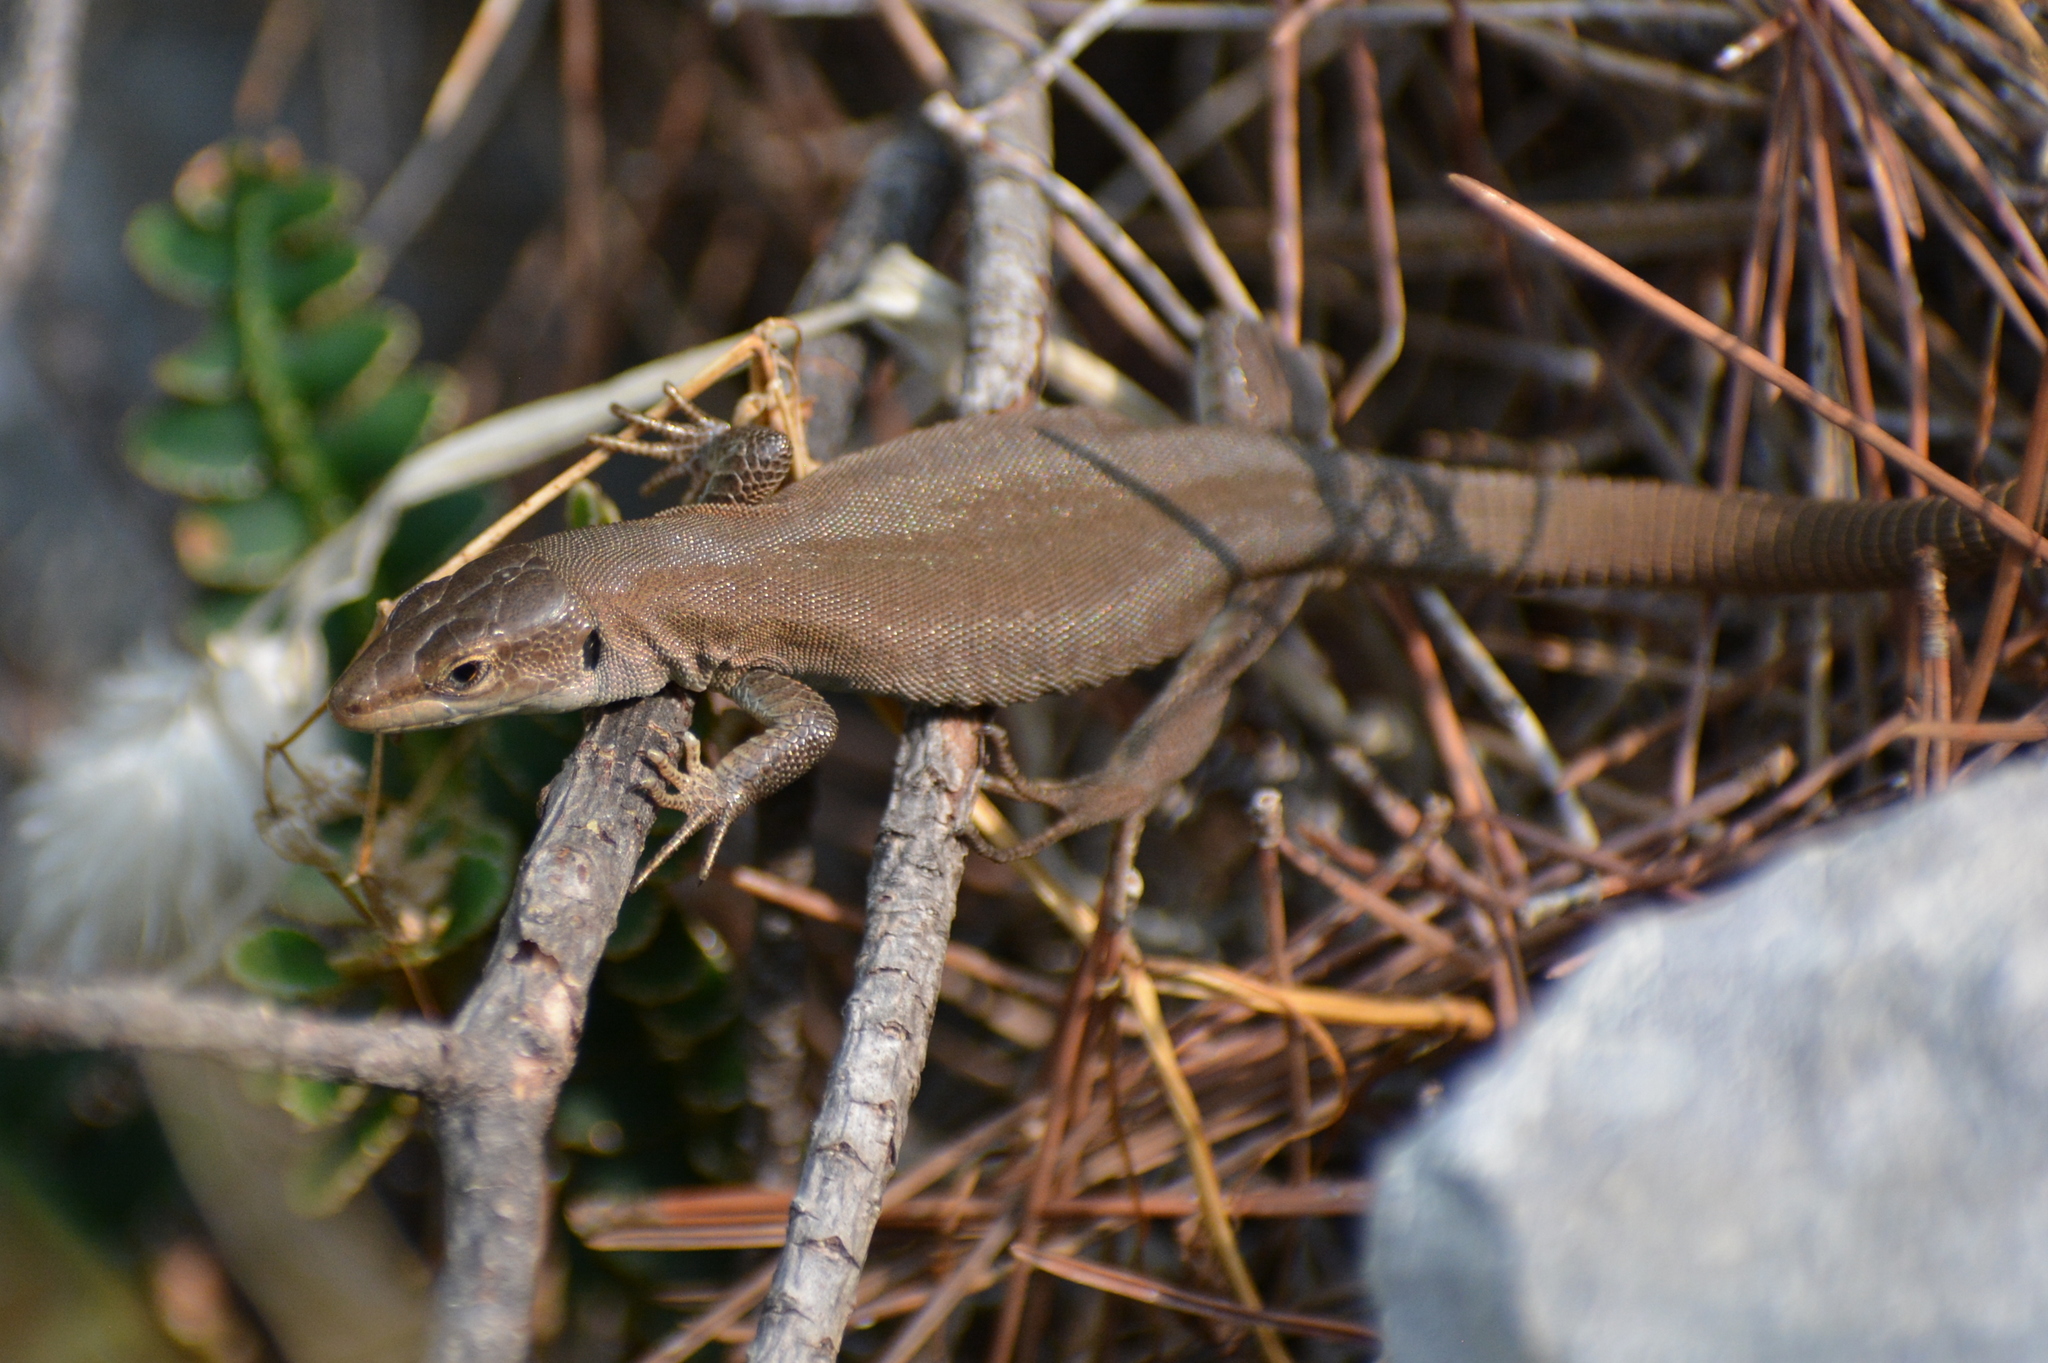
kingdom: Animalia
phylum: Chordata
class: Squamata
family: Lacertidae
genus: Podarcis
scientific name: Podarcis melisellensis
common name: Dalmatian wall lizard
